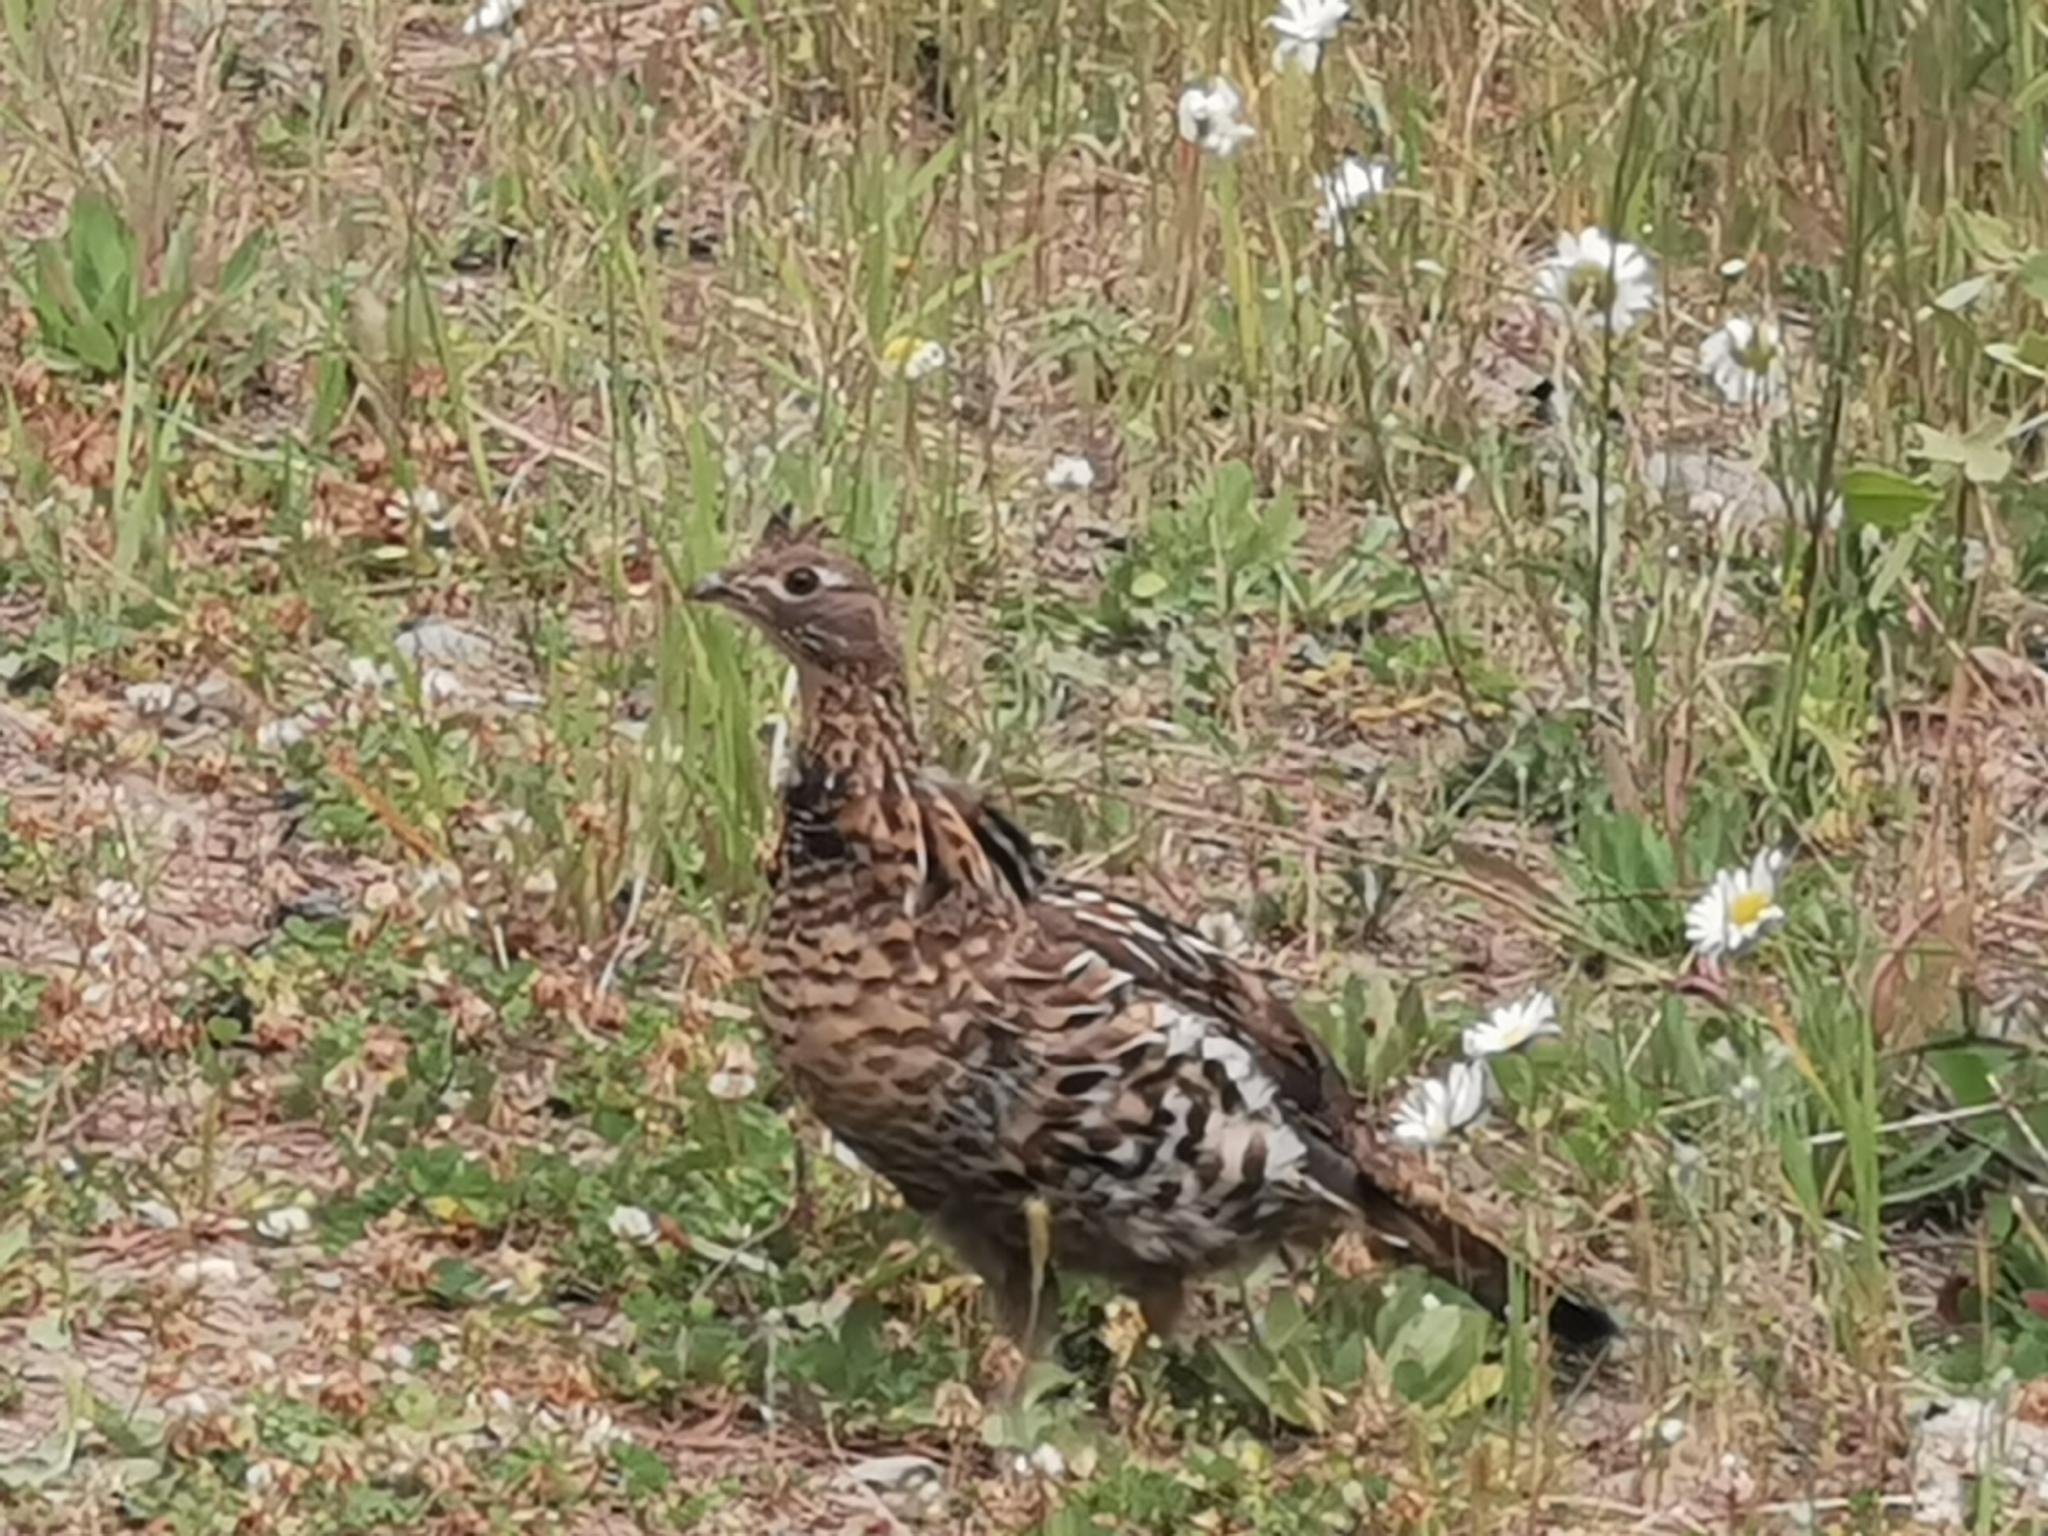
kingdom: Animalia
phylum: Chordata
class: Aves
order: Galliformes
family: Phasianidae
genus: Bonasa
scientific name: Bonasa umbellus
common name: Ruffed grouse
